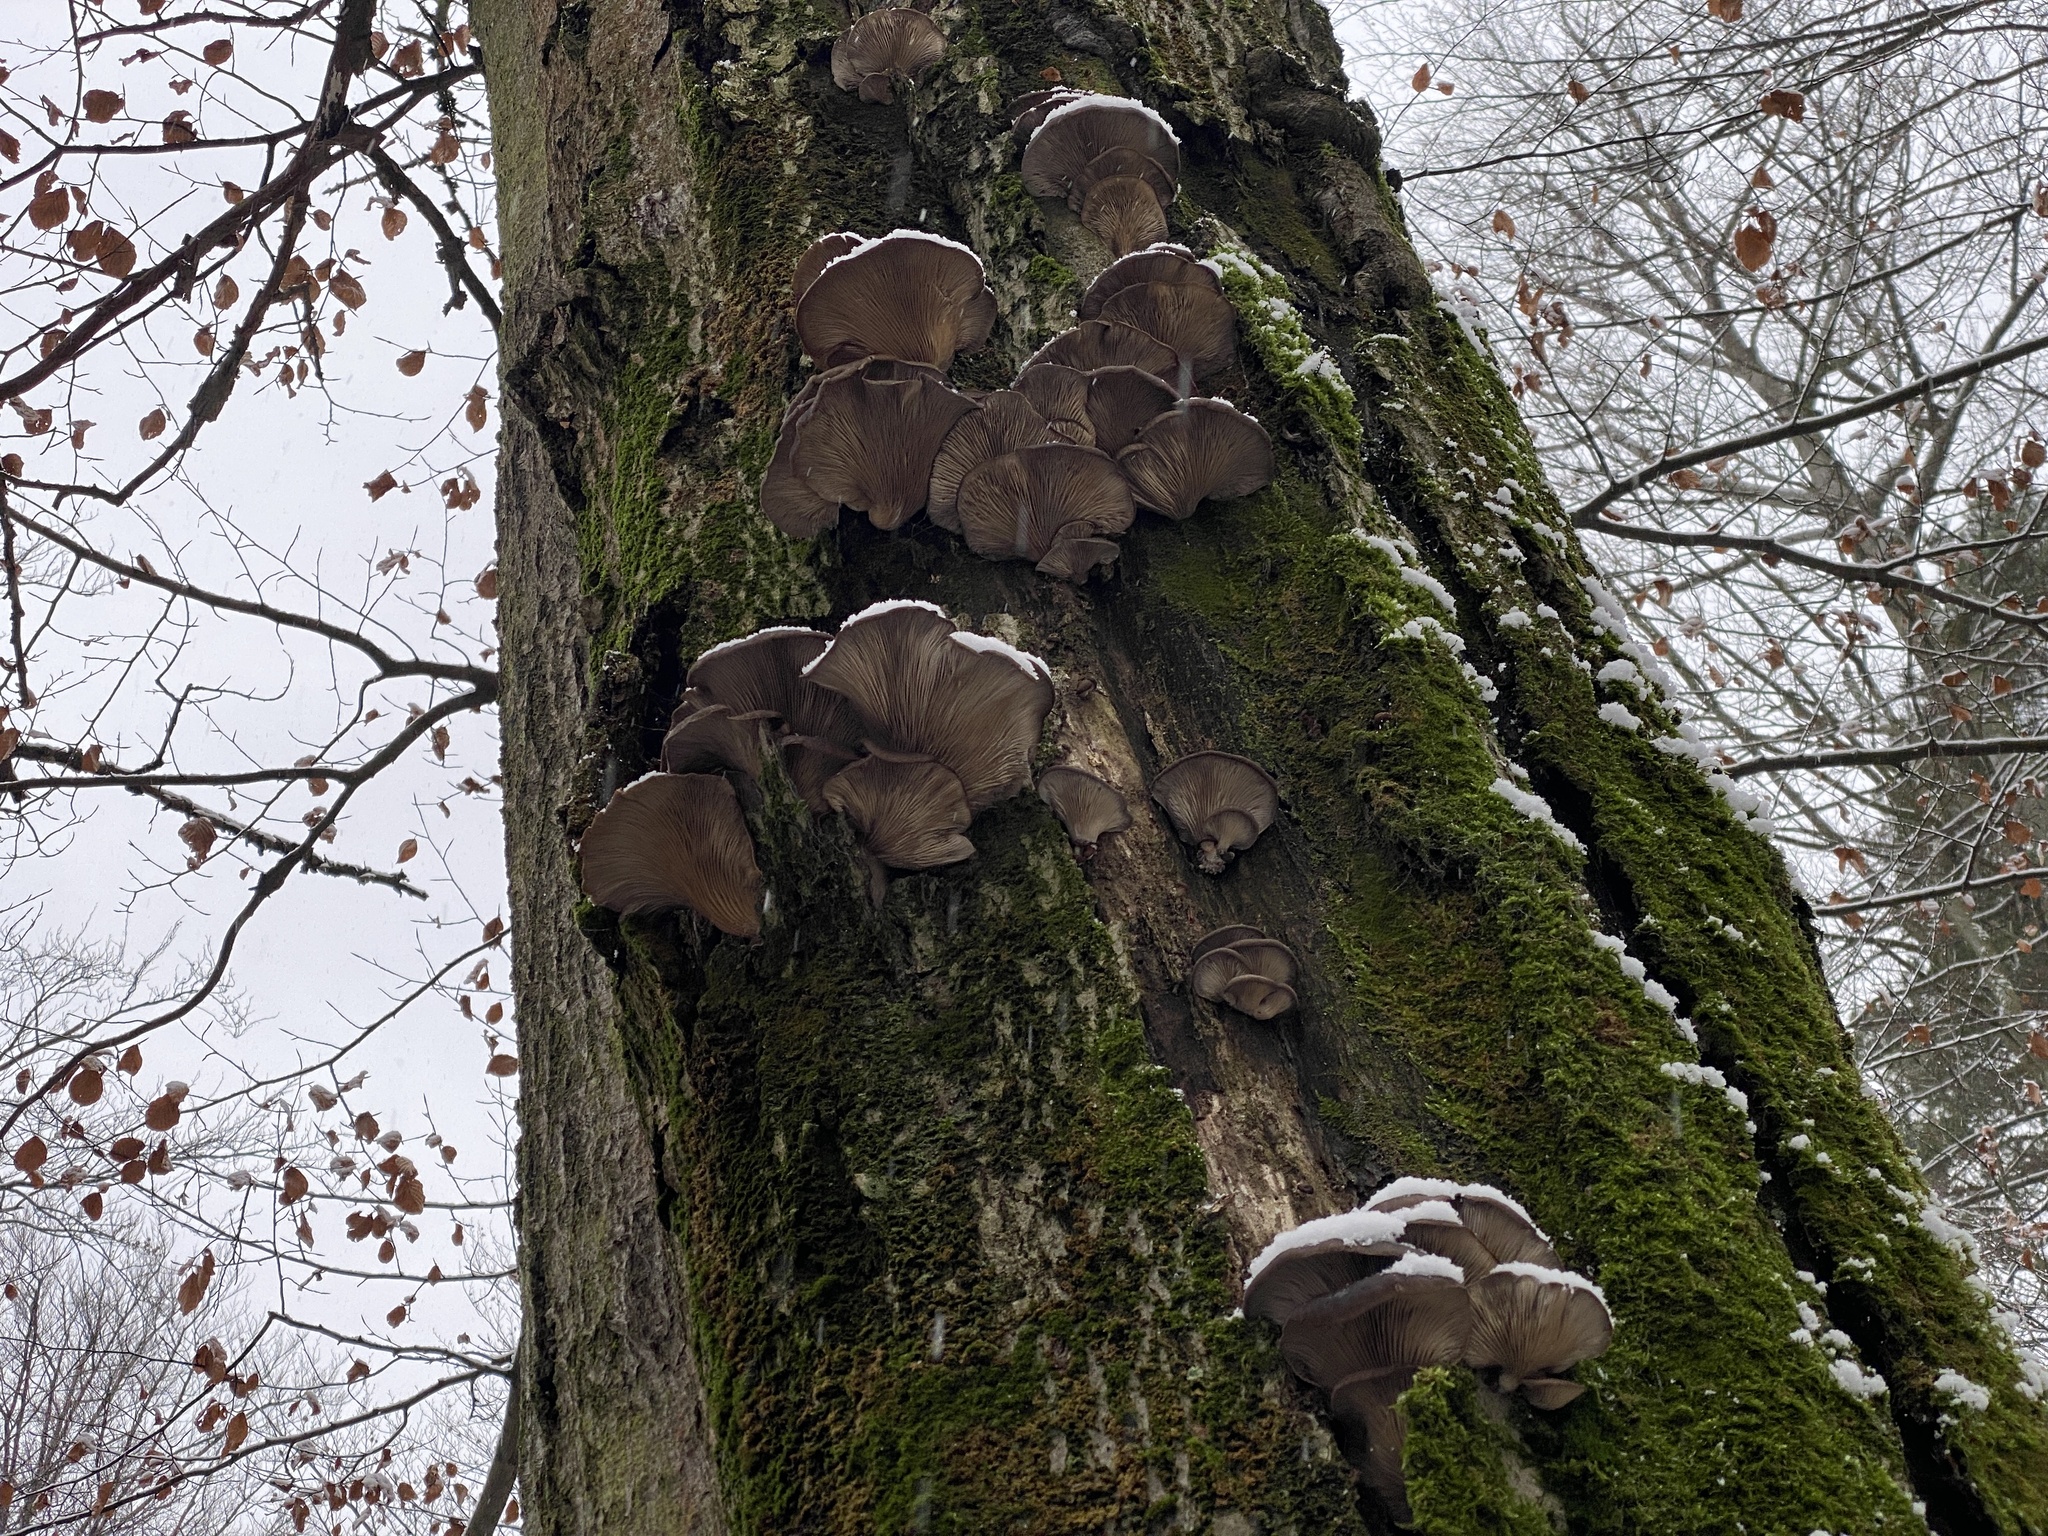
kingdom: Fungi
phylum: Basidiomycota
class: Agaricomycetes
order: Agaricales
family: Pleurotaceae
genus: Pleurotus
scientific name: Pleurotus ostreatus
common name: Oyster mushroom
